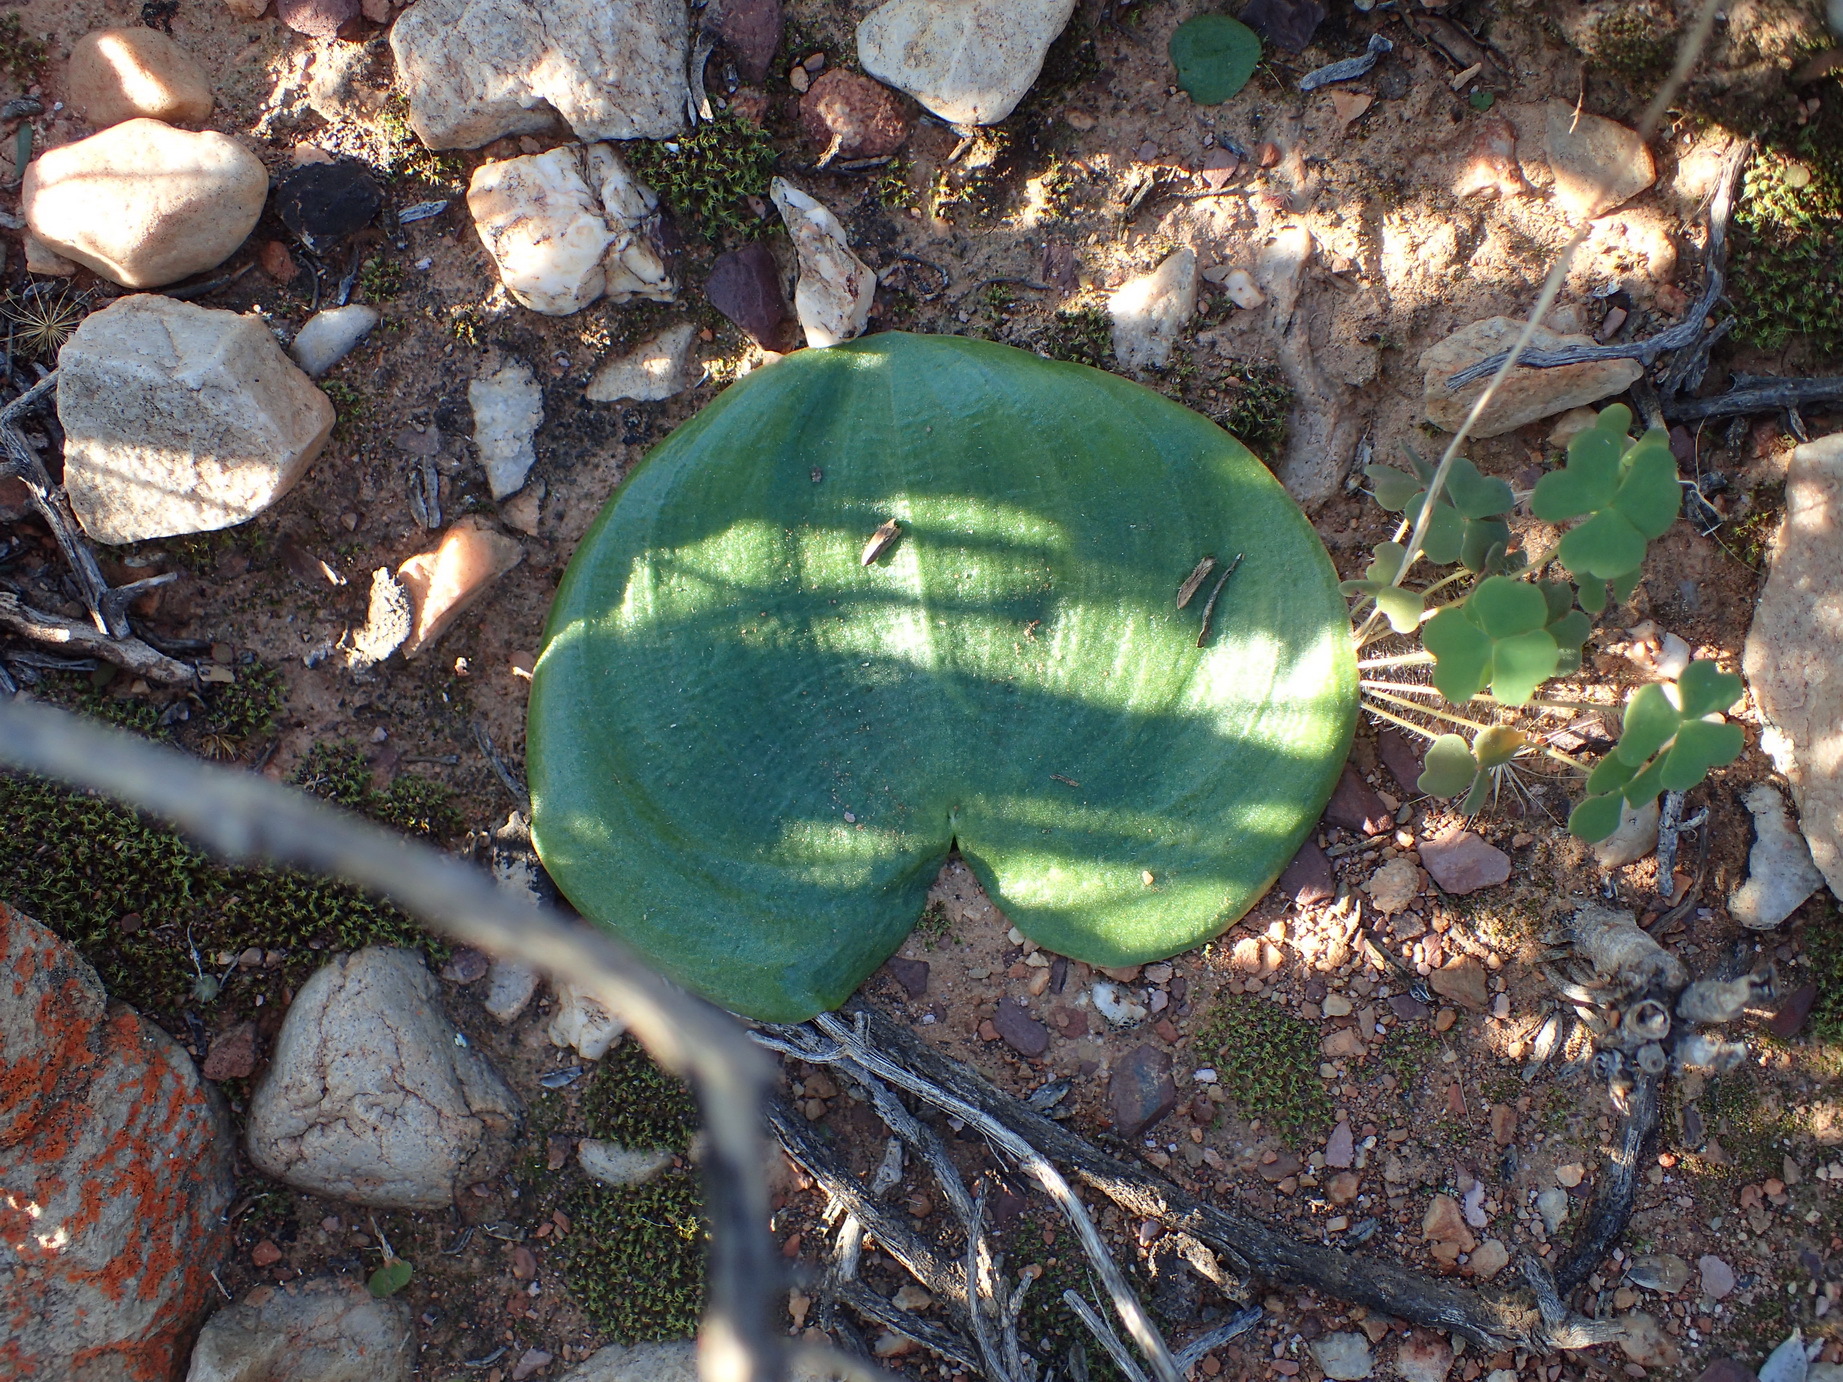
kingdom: Plantae
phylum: Tracheophyta
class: Liliopsida
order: Asparagales
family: Asparagaceae
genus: Eriospermum
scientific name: Eriospermum zeyheri
